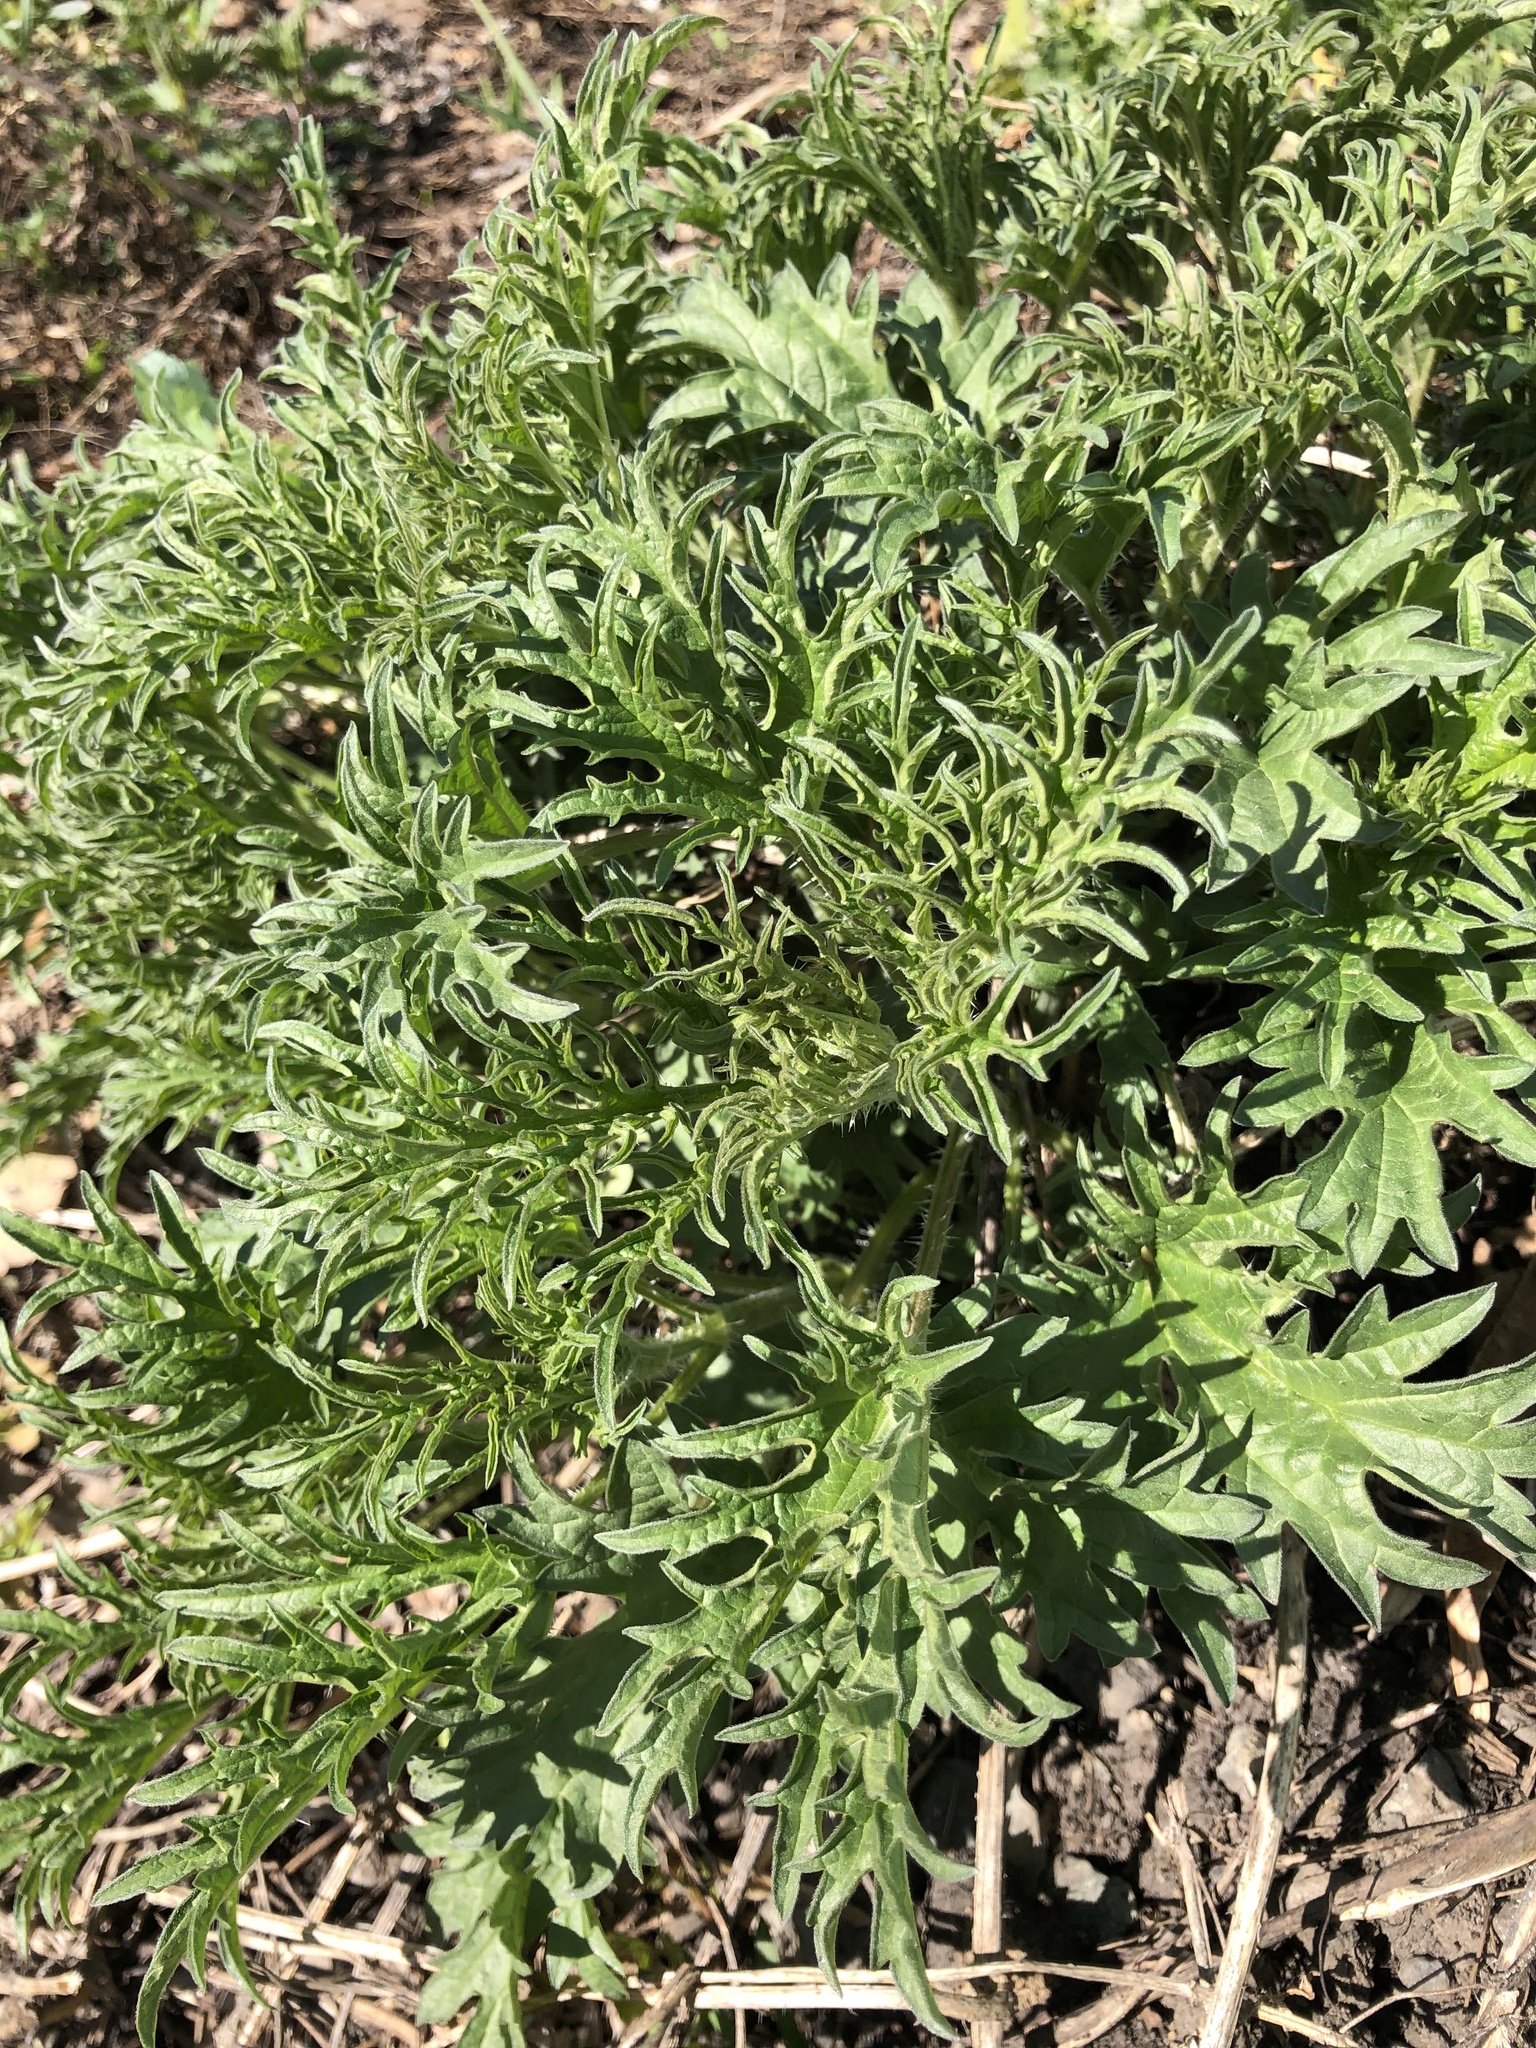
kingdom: Plantae
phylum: Tracheophyta
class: Magnoliopsida
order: Rosales
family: Urticaceae
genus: Urtica
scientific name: Urtica cannabina
